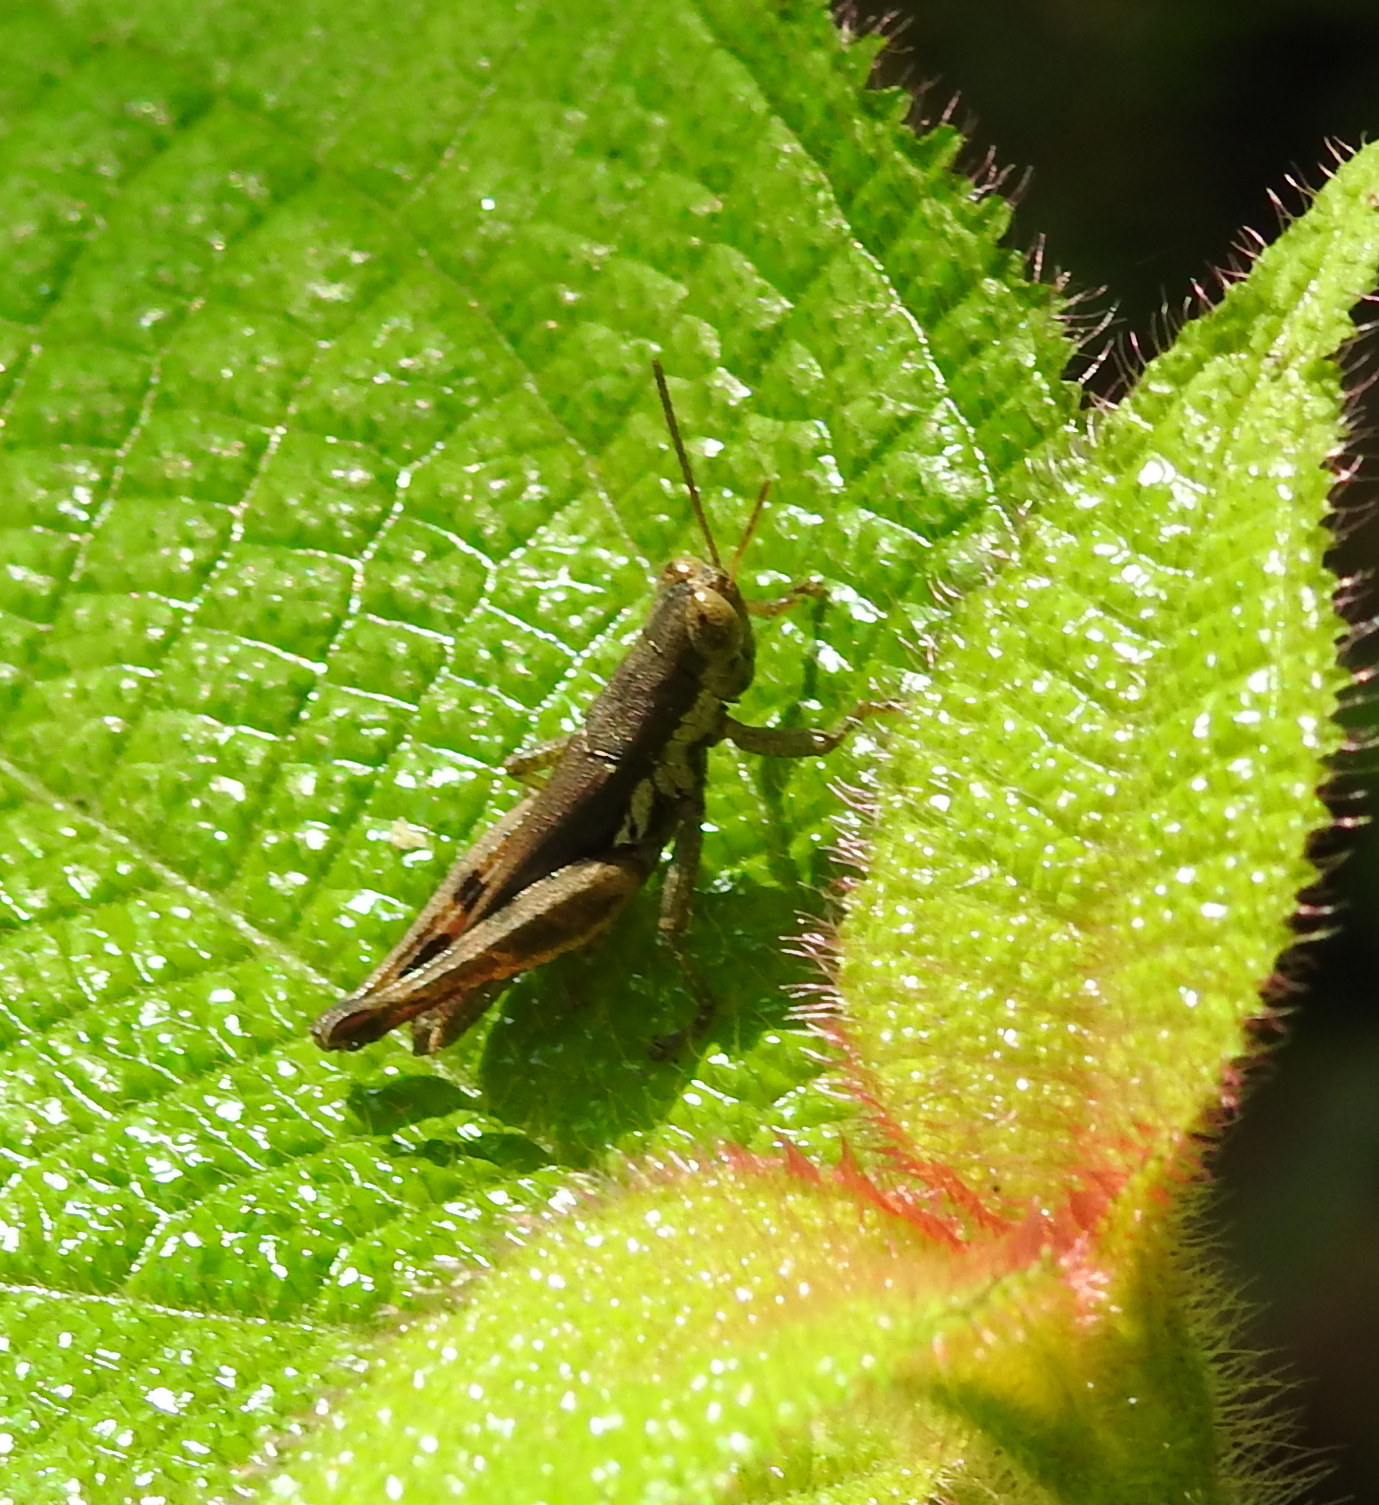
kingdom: Animalia
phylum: Arthropoda
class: Insecta
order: Orthoptera
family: Acrididae
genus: Pseudoxya
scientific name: Pseudoxya diminuta
